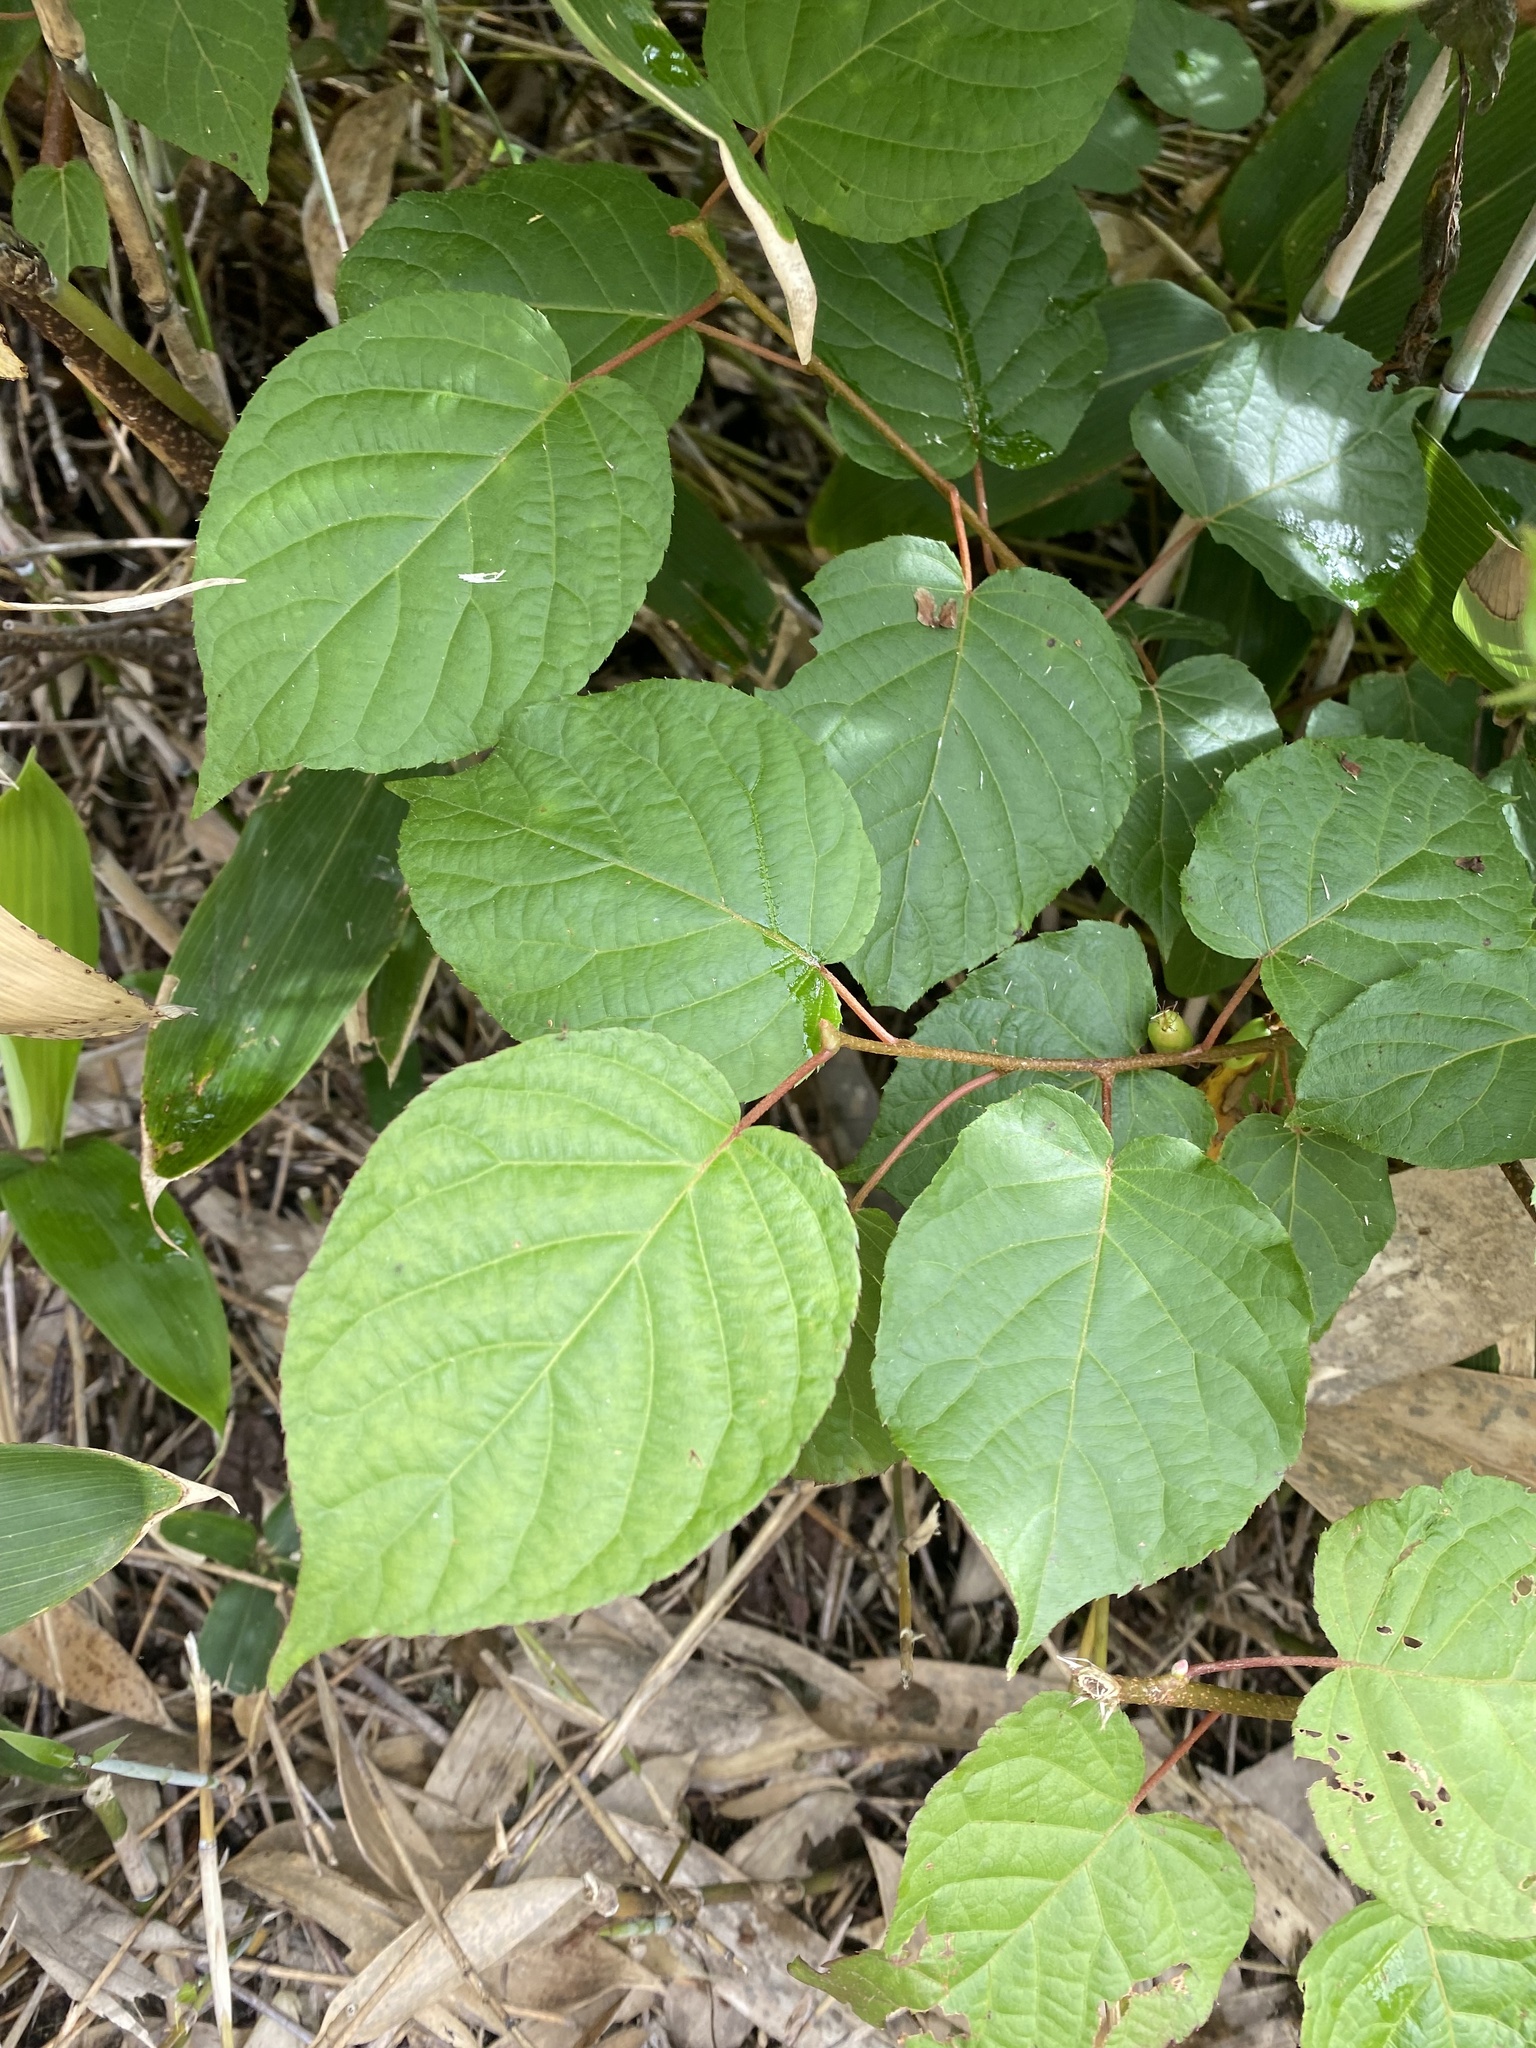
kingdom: Plantae
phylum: Tracheophyta
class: Magnoliopsida
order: Ericales
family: Actinidiaceae
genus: Actinidia
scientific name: Actinidia kolomikta
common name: Arctic beauty kiwi
